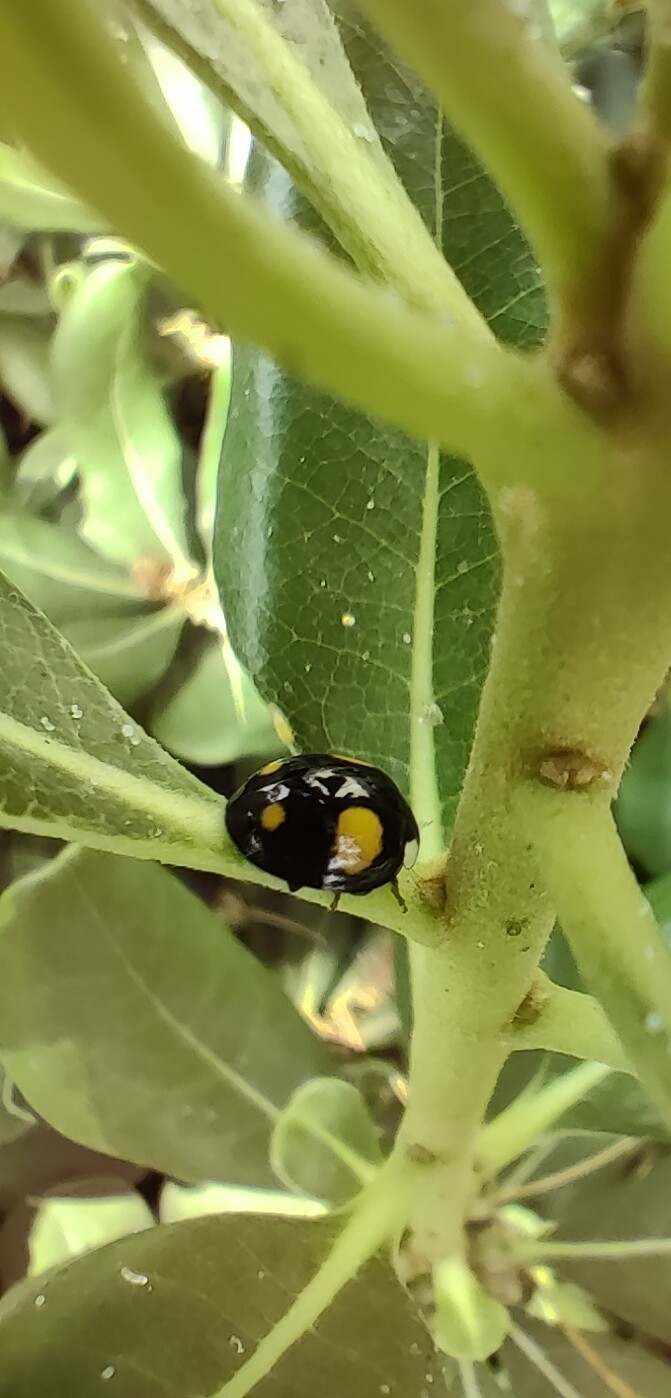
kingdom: Animalia
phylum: Arthropoda
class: Insecta
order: Coleoptera
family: Coccinellidae
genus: Harmonia
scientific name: Harmonia axyridis
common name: Harlequin ladybird
